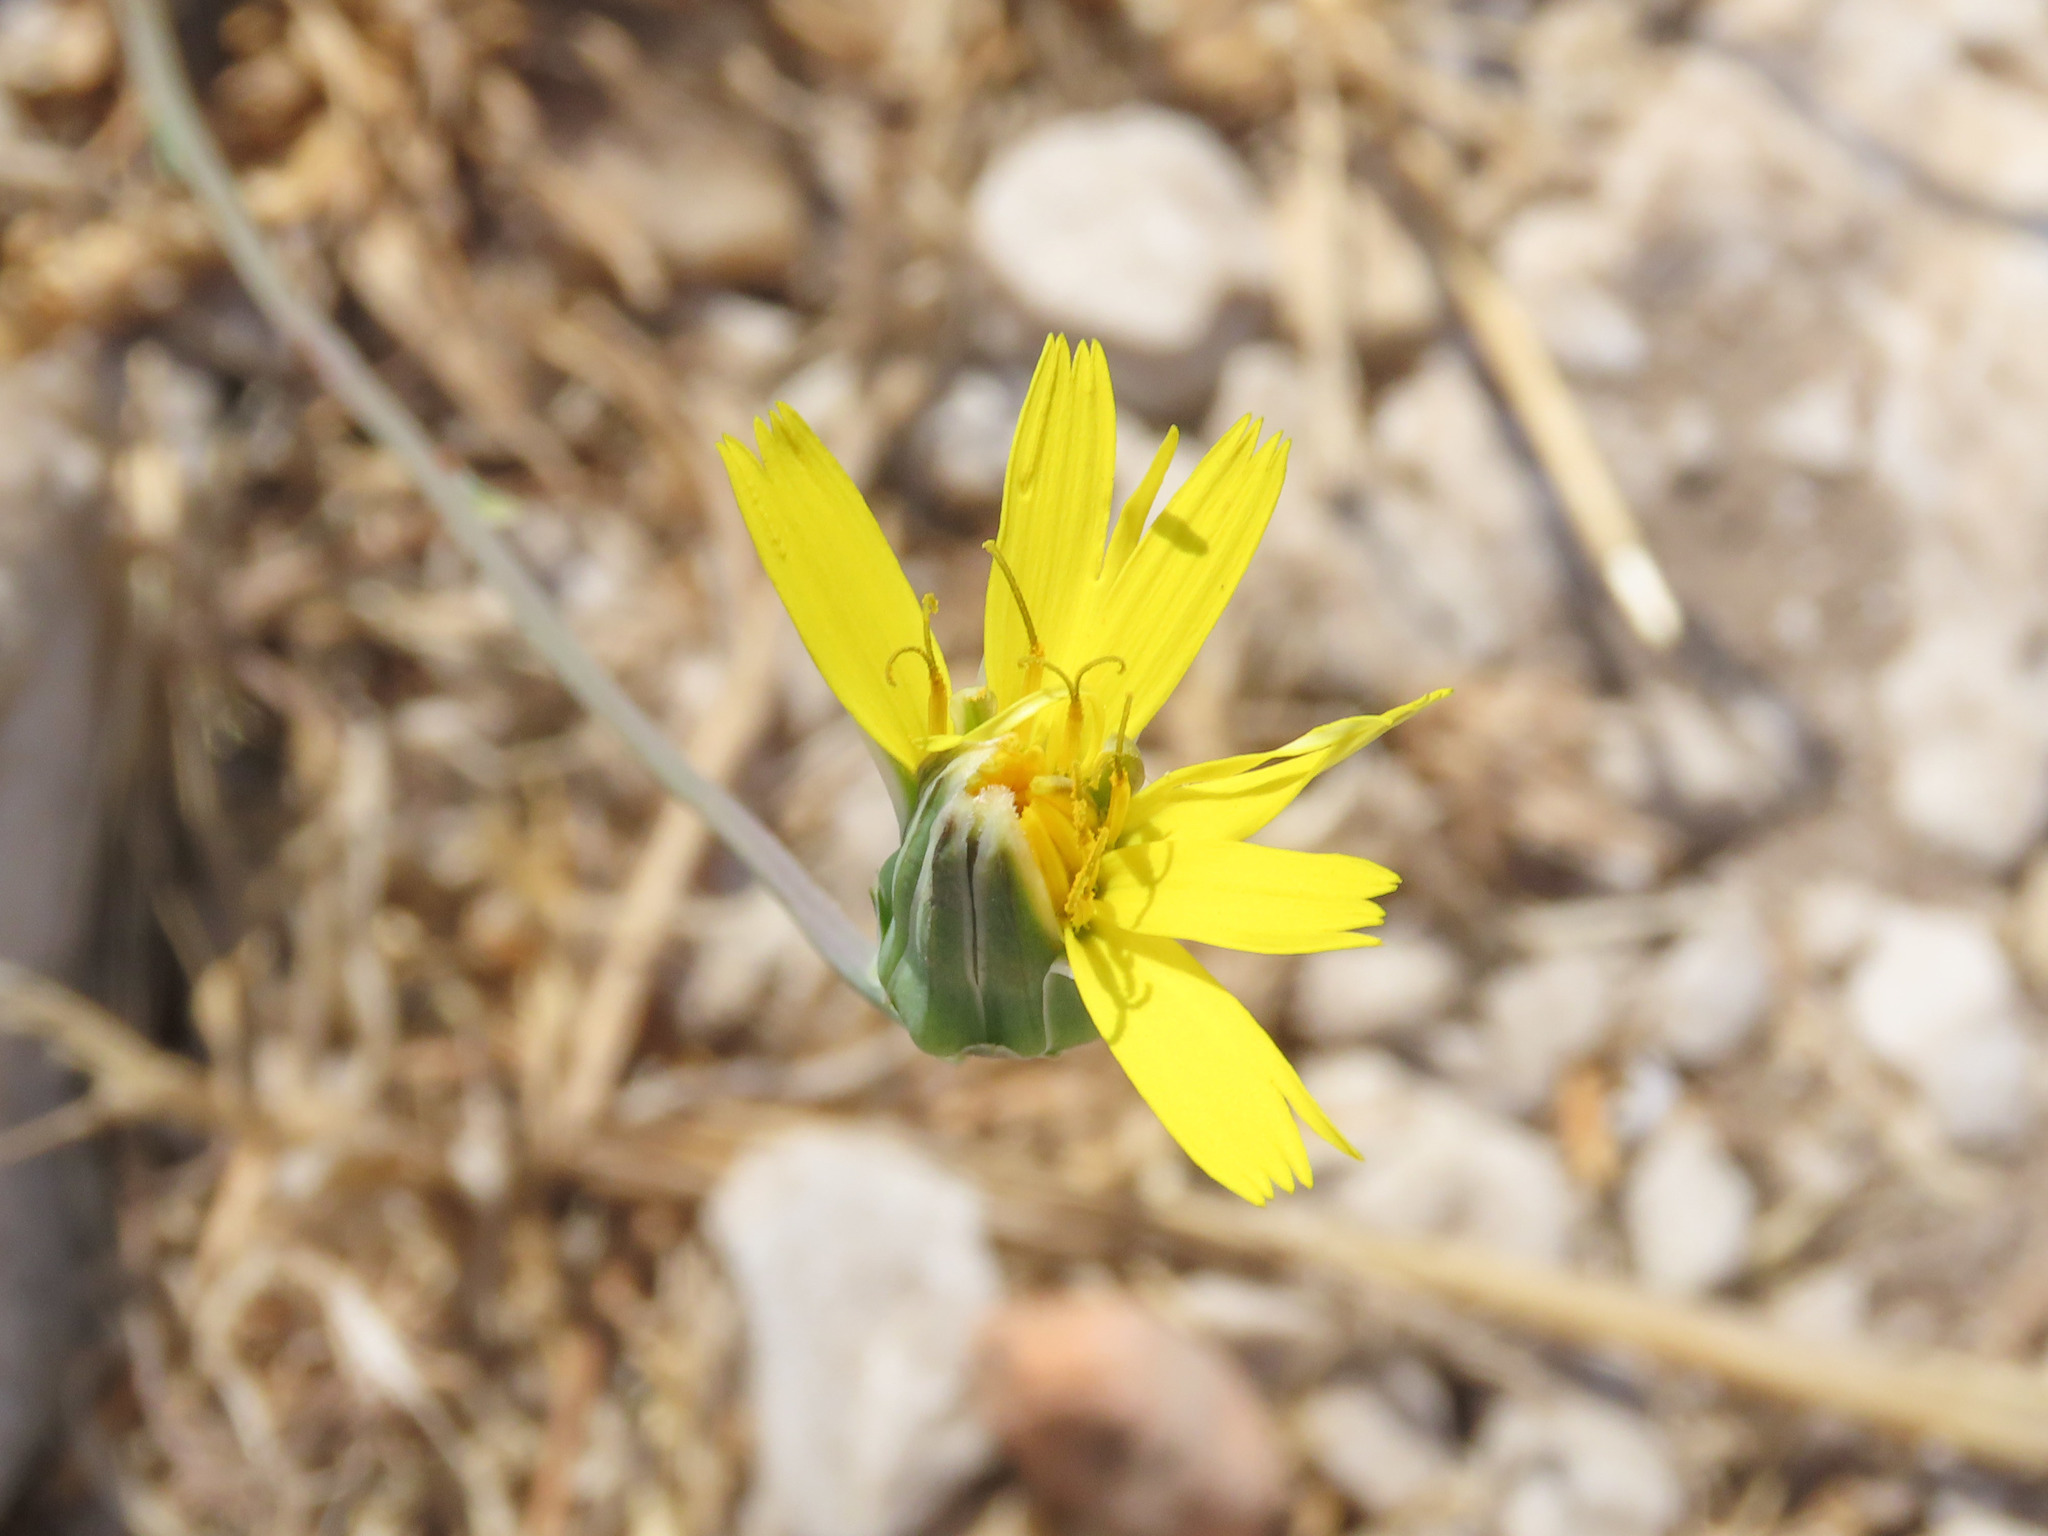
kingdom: Plantae
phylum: Tracheophyta
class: Magnoliopsida
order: Asterales
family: Asteraceae
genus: Reichardia
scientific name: Reichardia picroides
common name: Common brighteyes
